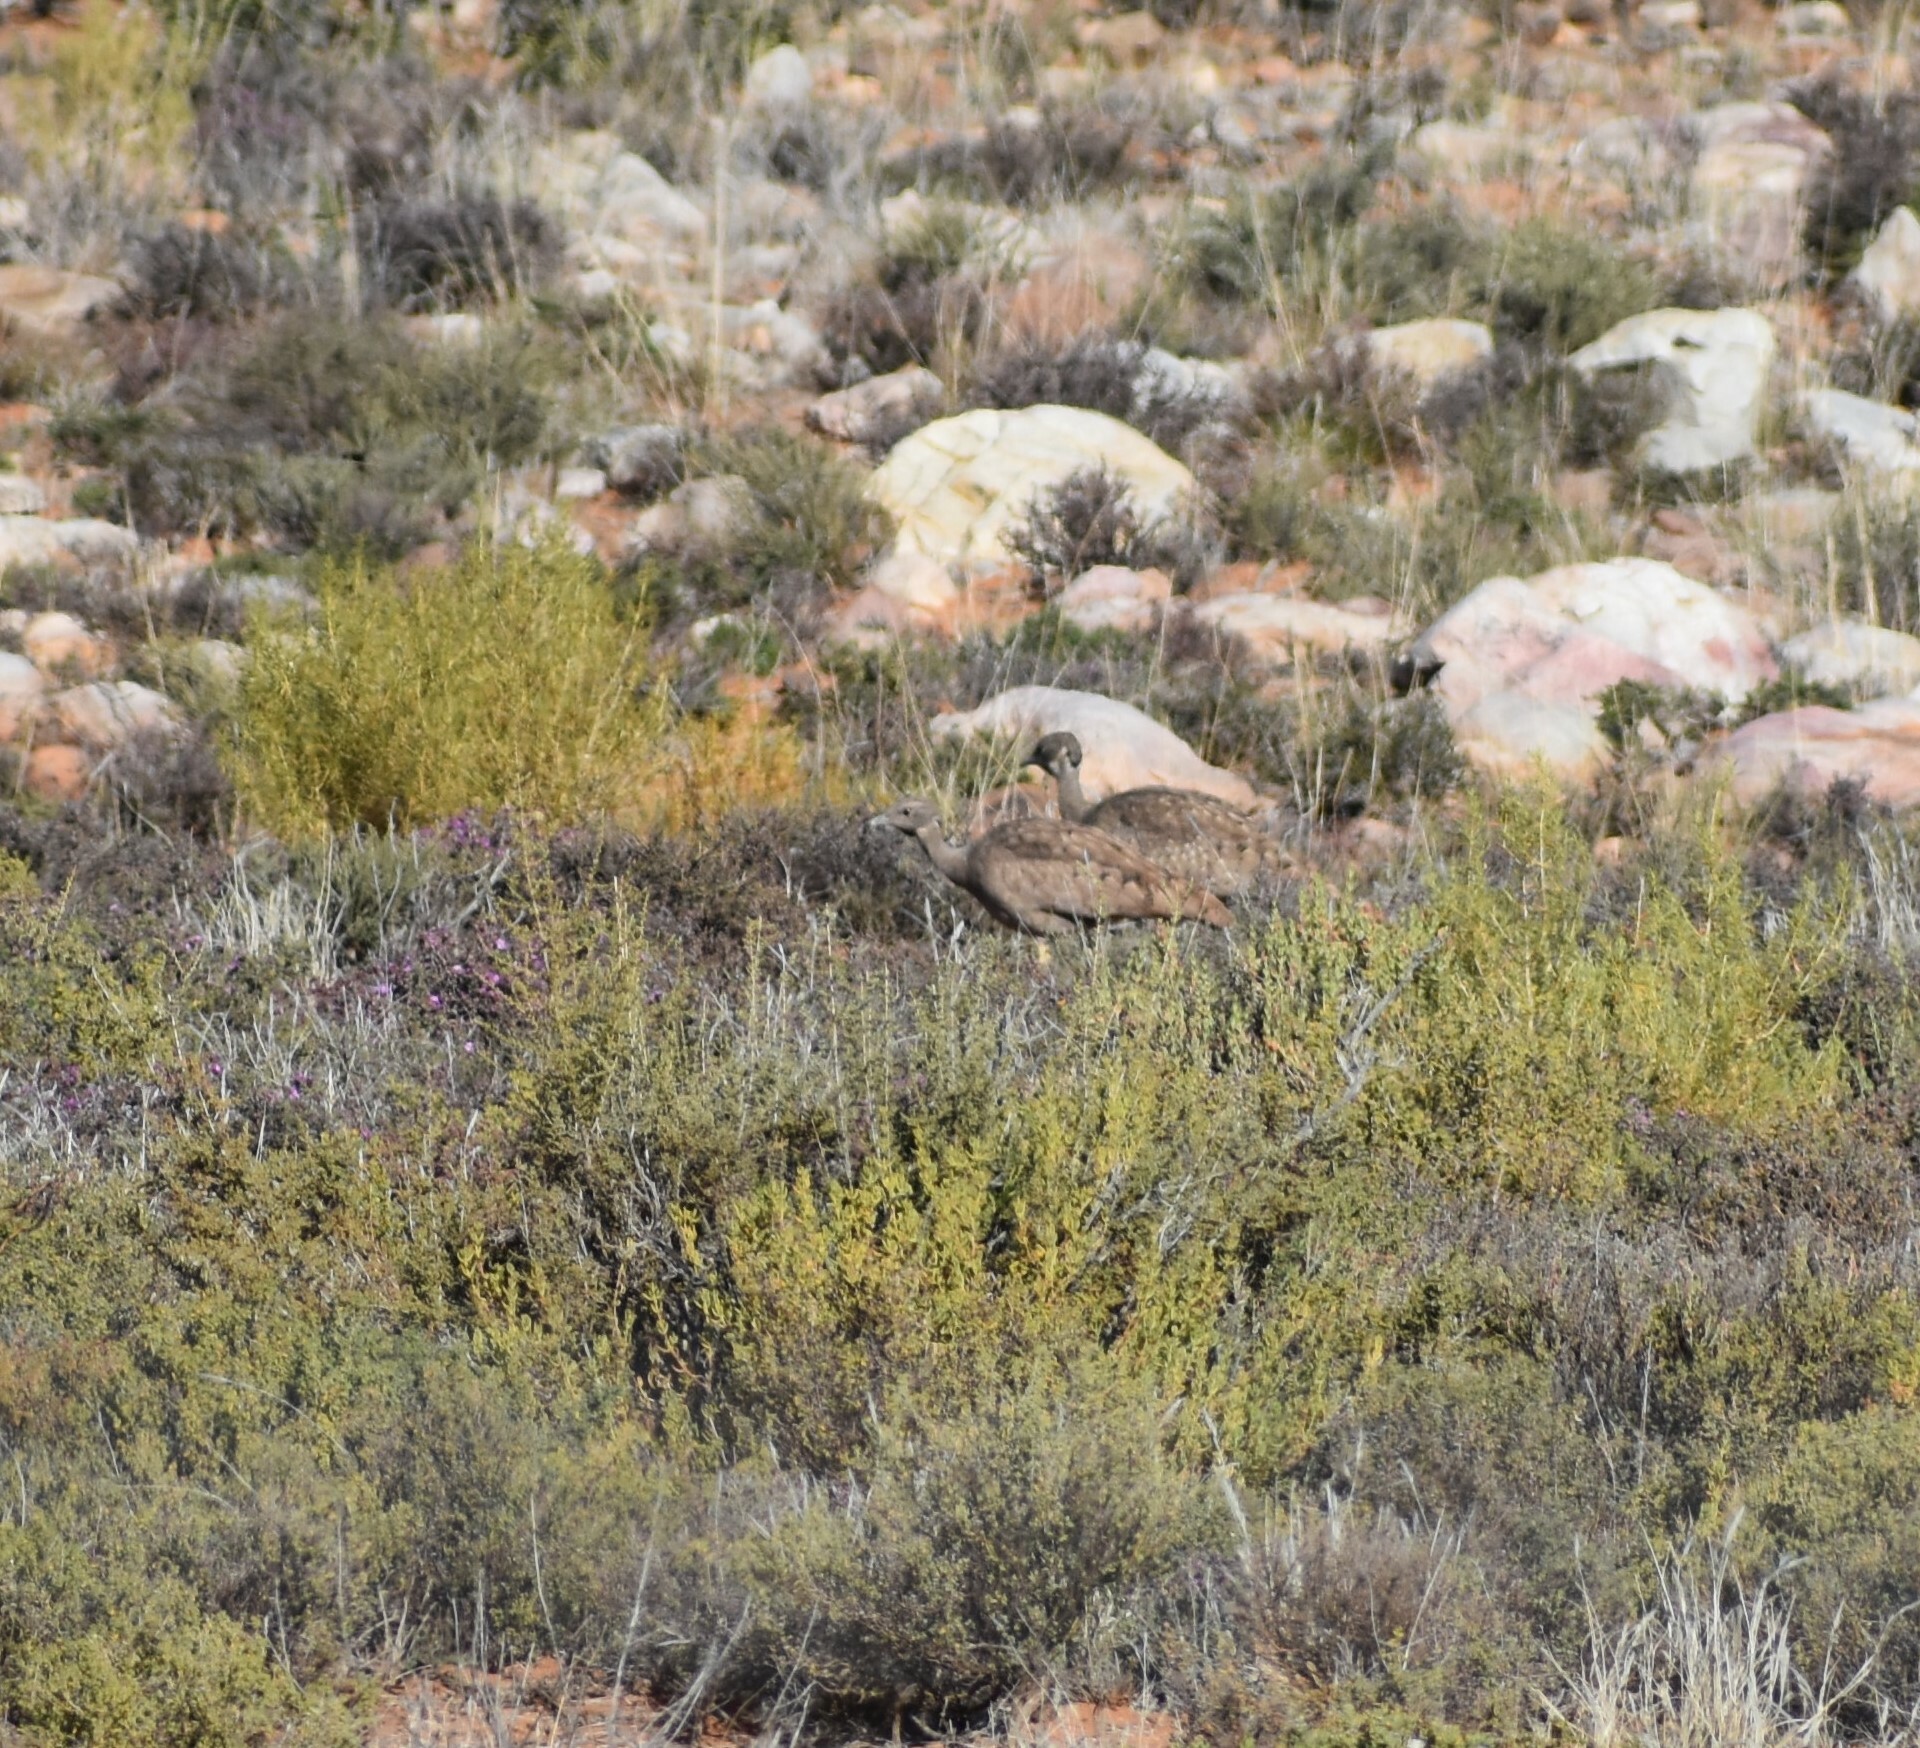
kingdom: Animalia
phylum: Chordata
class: Aves
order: Otidiformes
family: Otididae
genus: Eupodotis
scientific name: Eupodotis vigorsii
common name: Karoo korhaan
